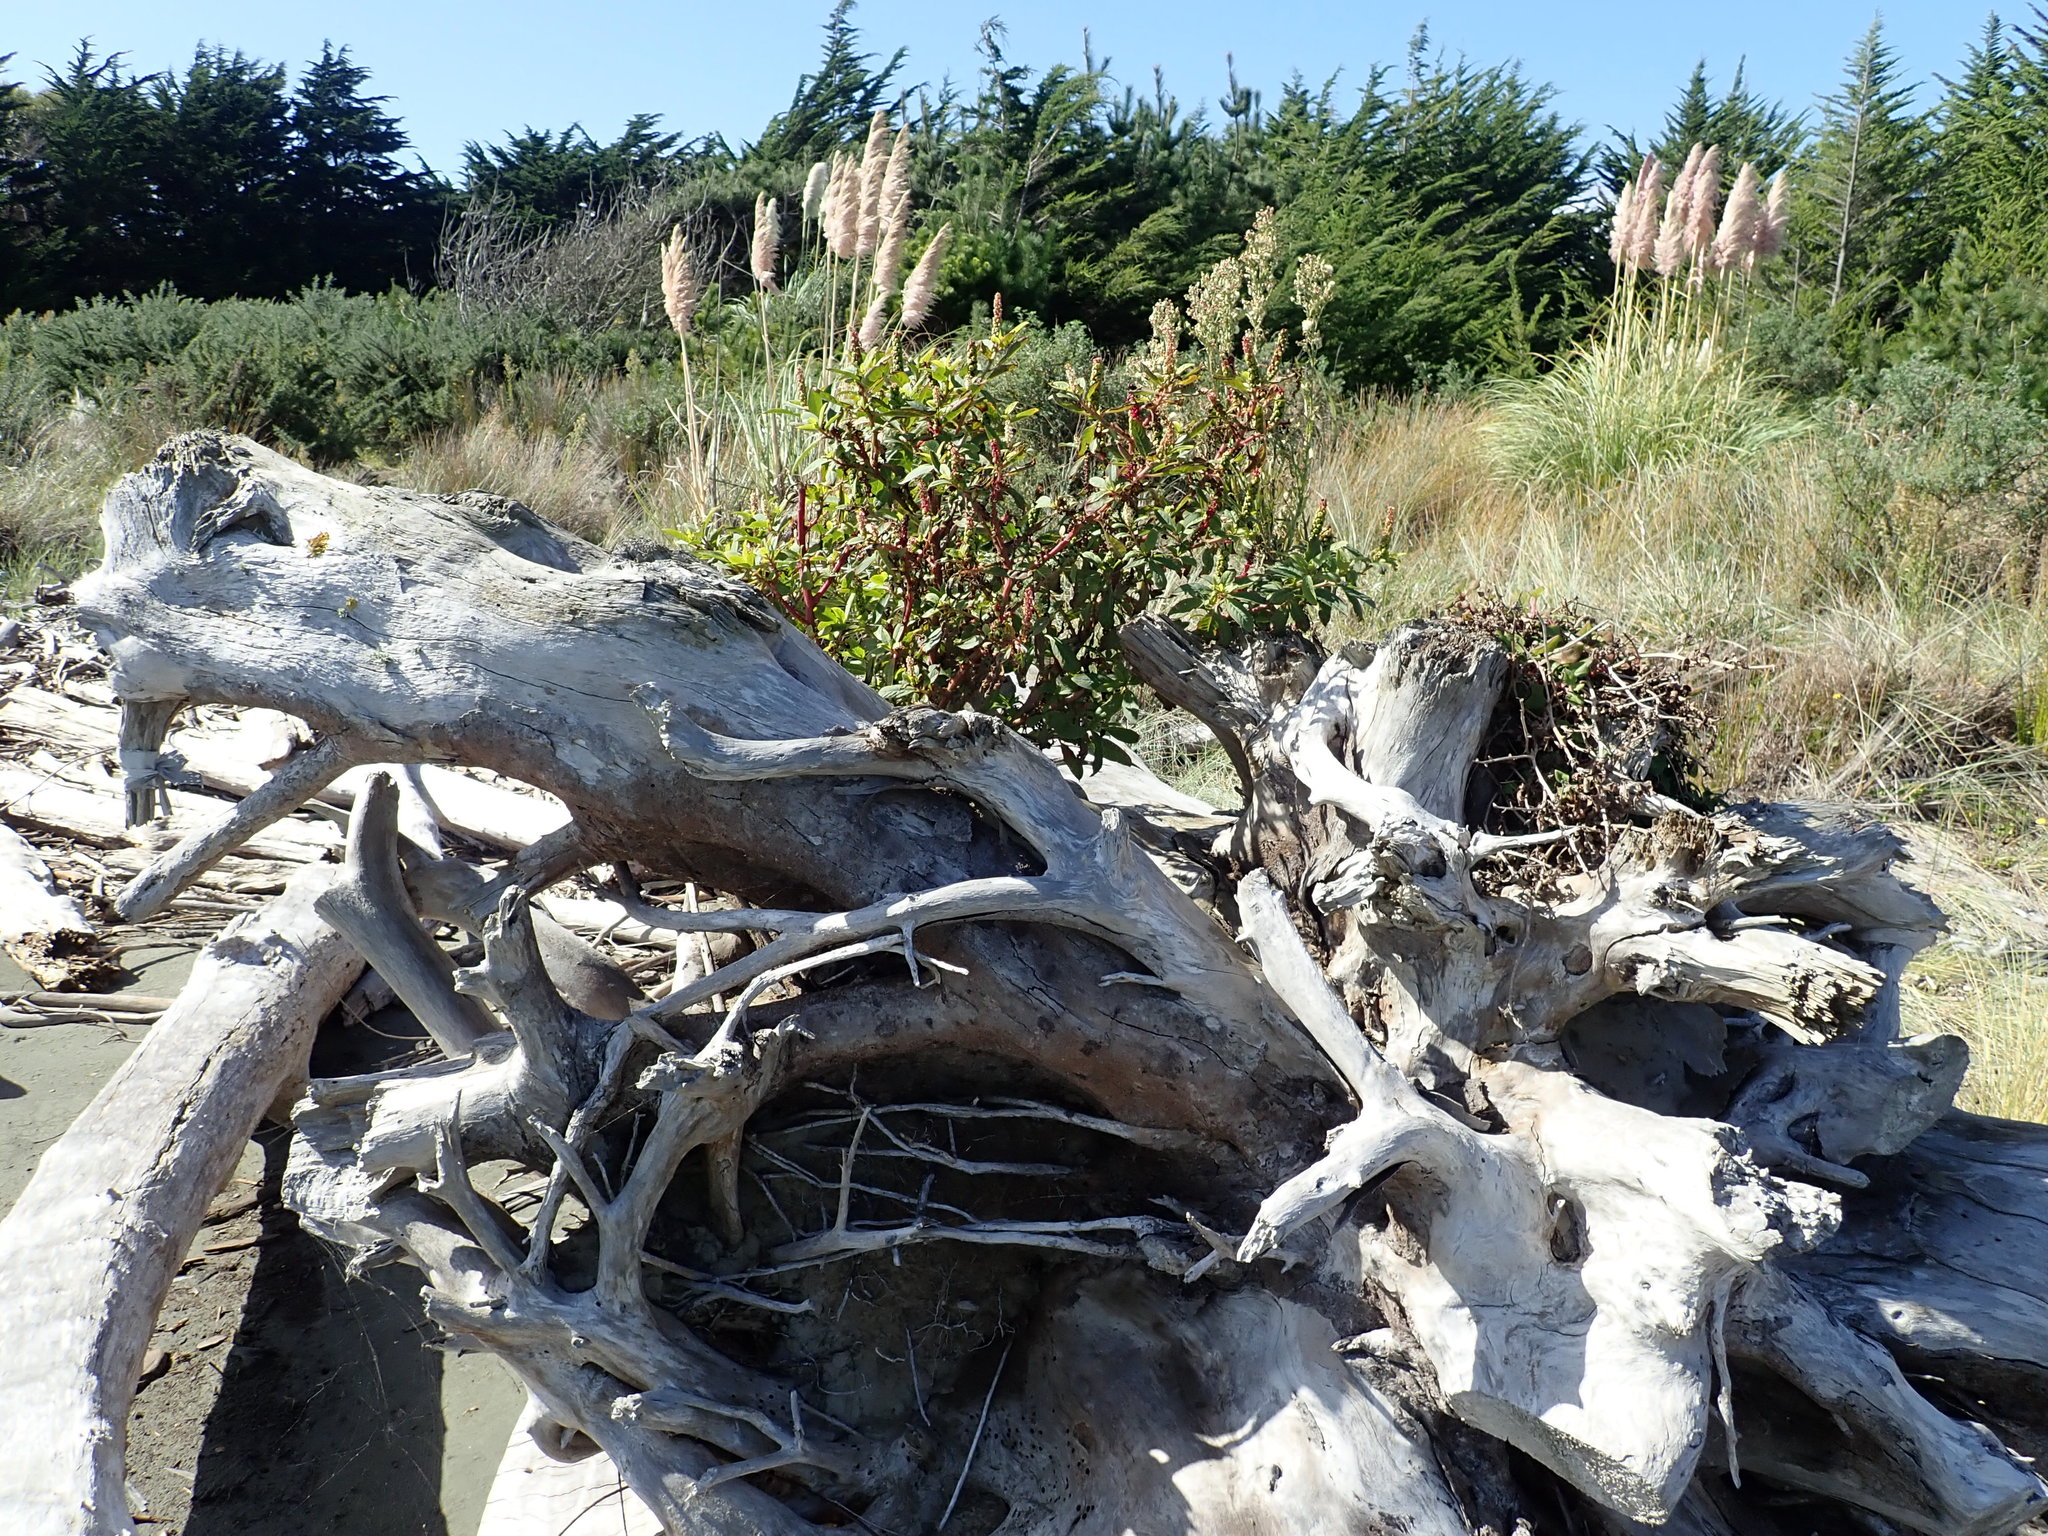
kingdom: Plantae
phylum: Tracheophyta
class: Magnoliopsida
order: Caryophyllales
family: Phytolaccaceae
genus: Phytolacca
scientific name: Phytolacca icosandra
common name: Button pokeweed
